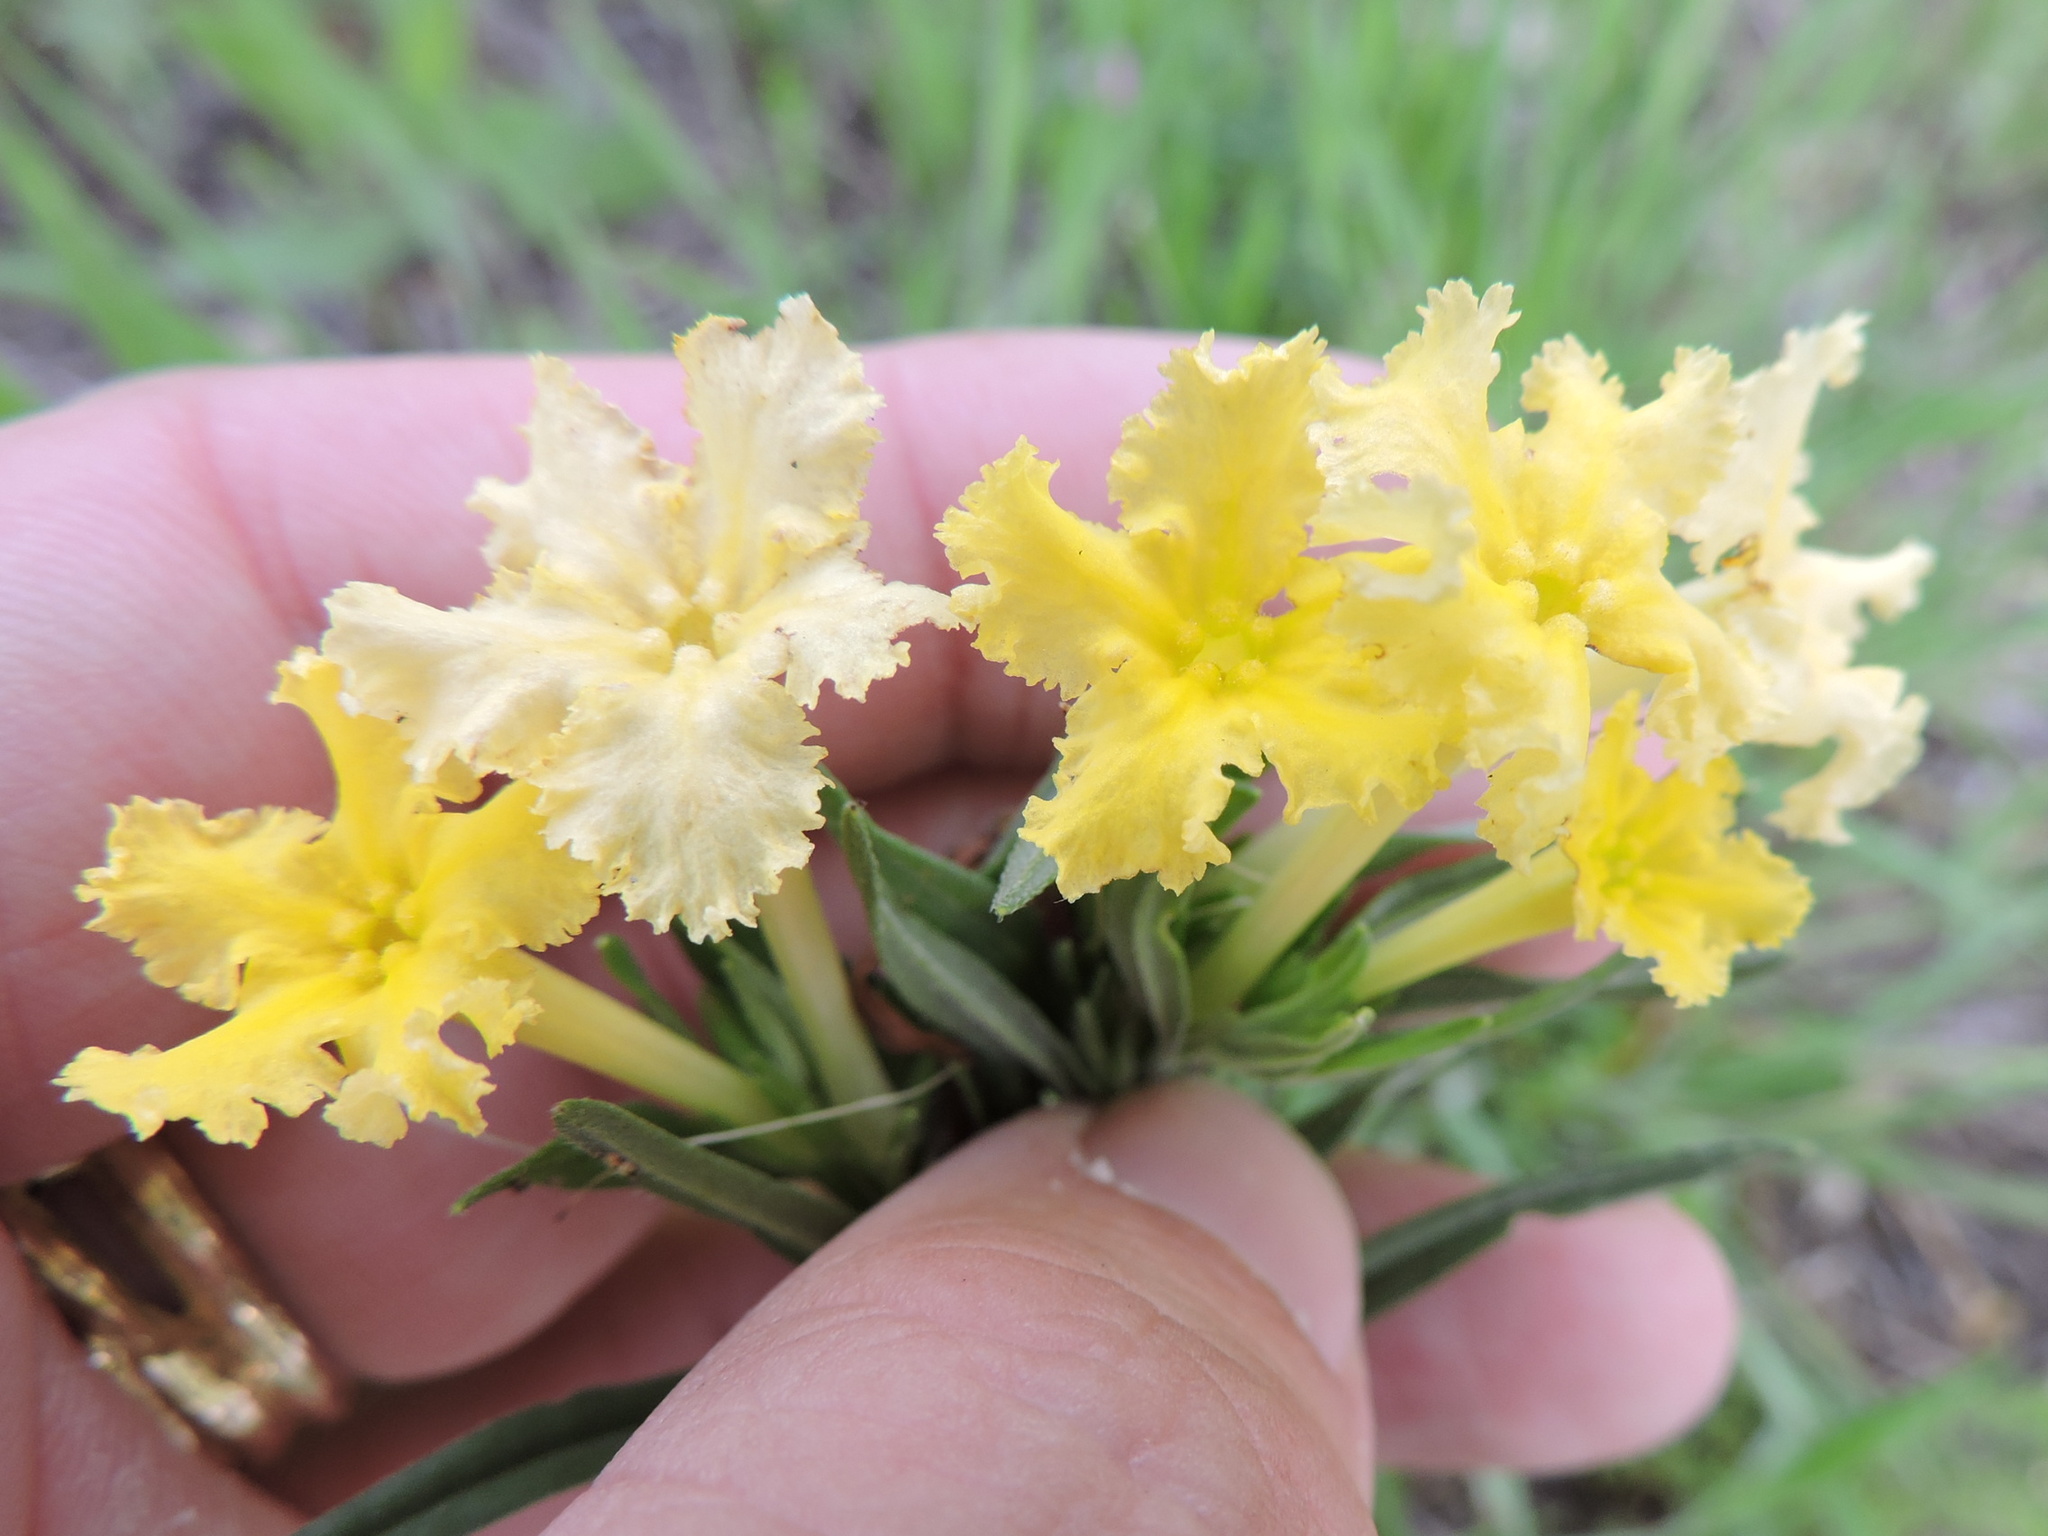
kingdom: Plantae
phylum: Tracheophyta
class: Magnoliopsida
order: Boraginales
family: Boraginaceae
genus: Lithospermum
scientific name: Lithospermum incisum
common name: Fringed gromwell
